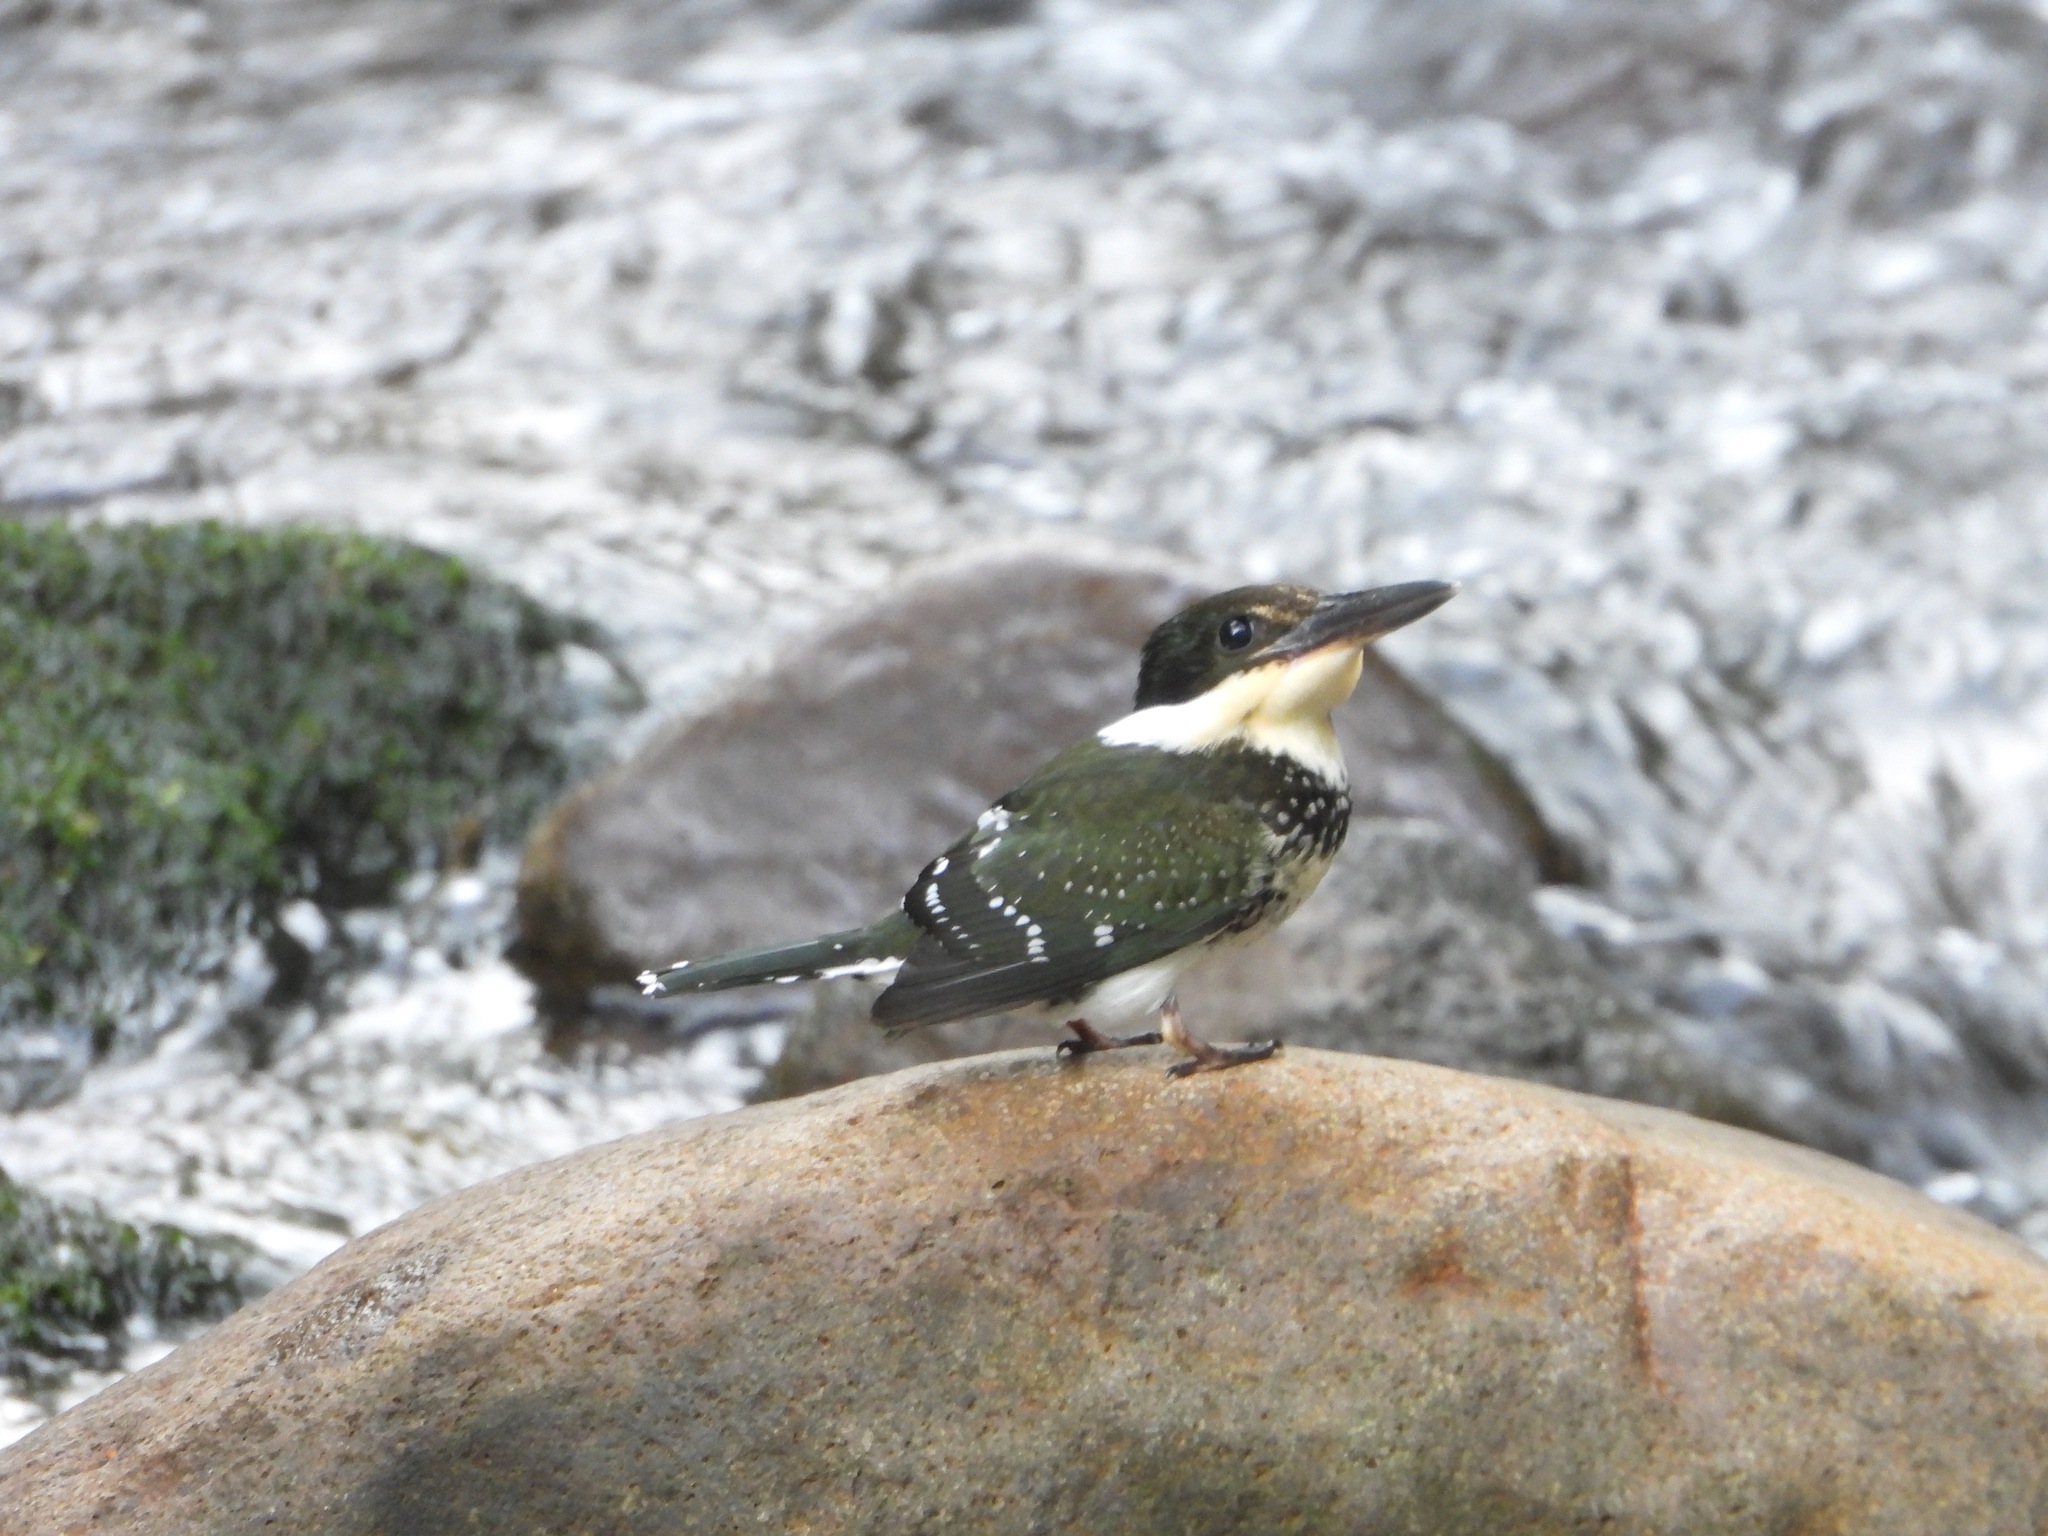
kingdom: Animalia
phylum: Chordata
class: Aves
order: Coraciiformes
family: Alcedinidae
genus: Chloroceryle
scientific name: Chloroceryle americana
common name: Green kingfisher
